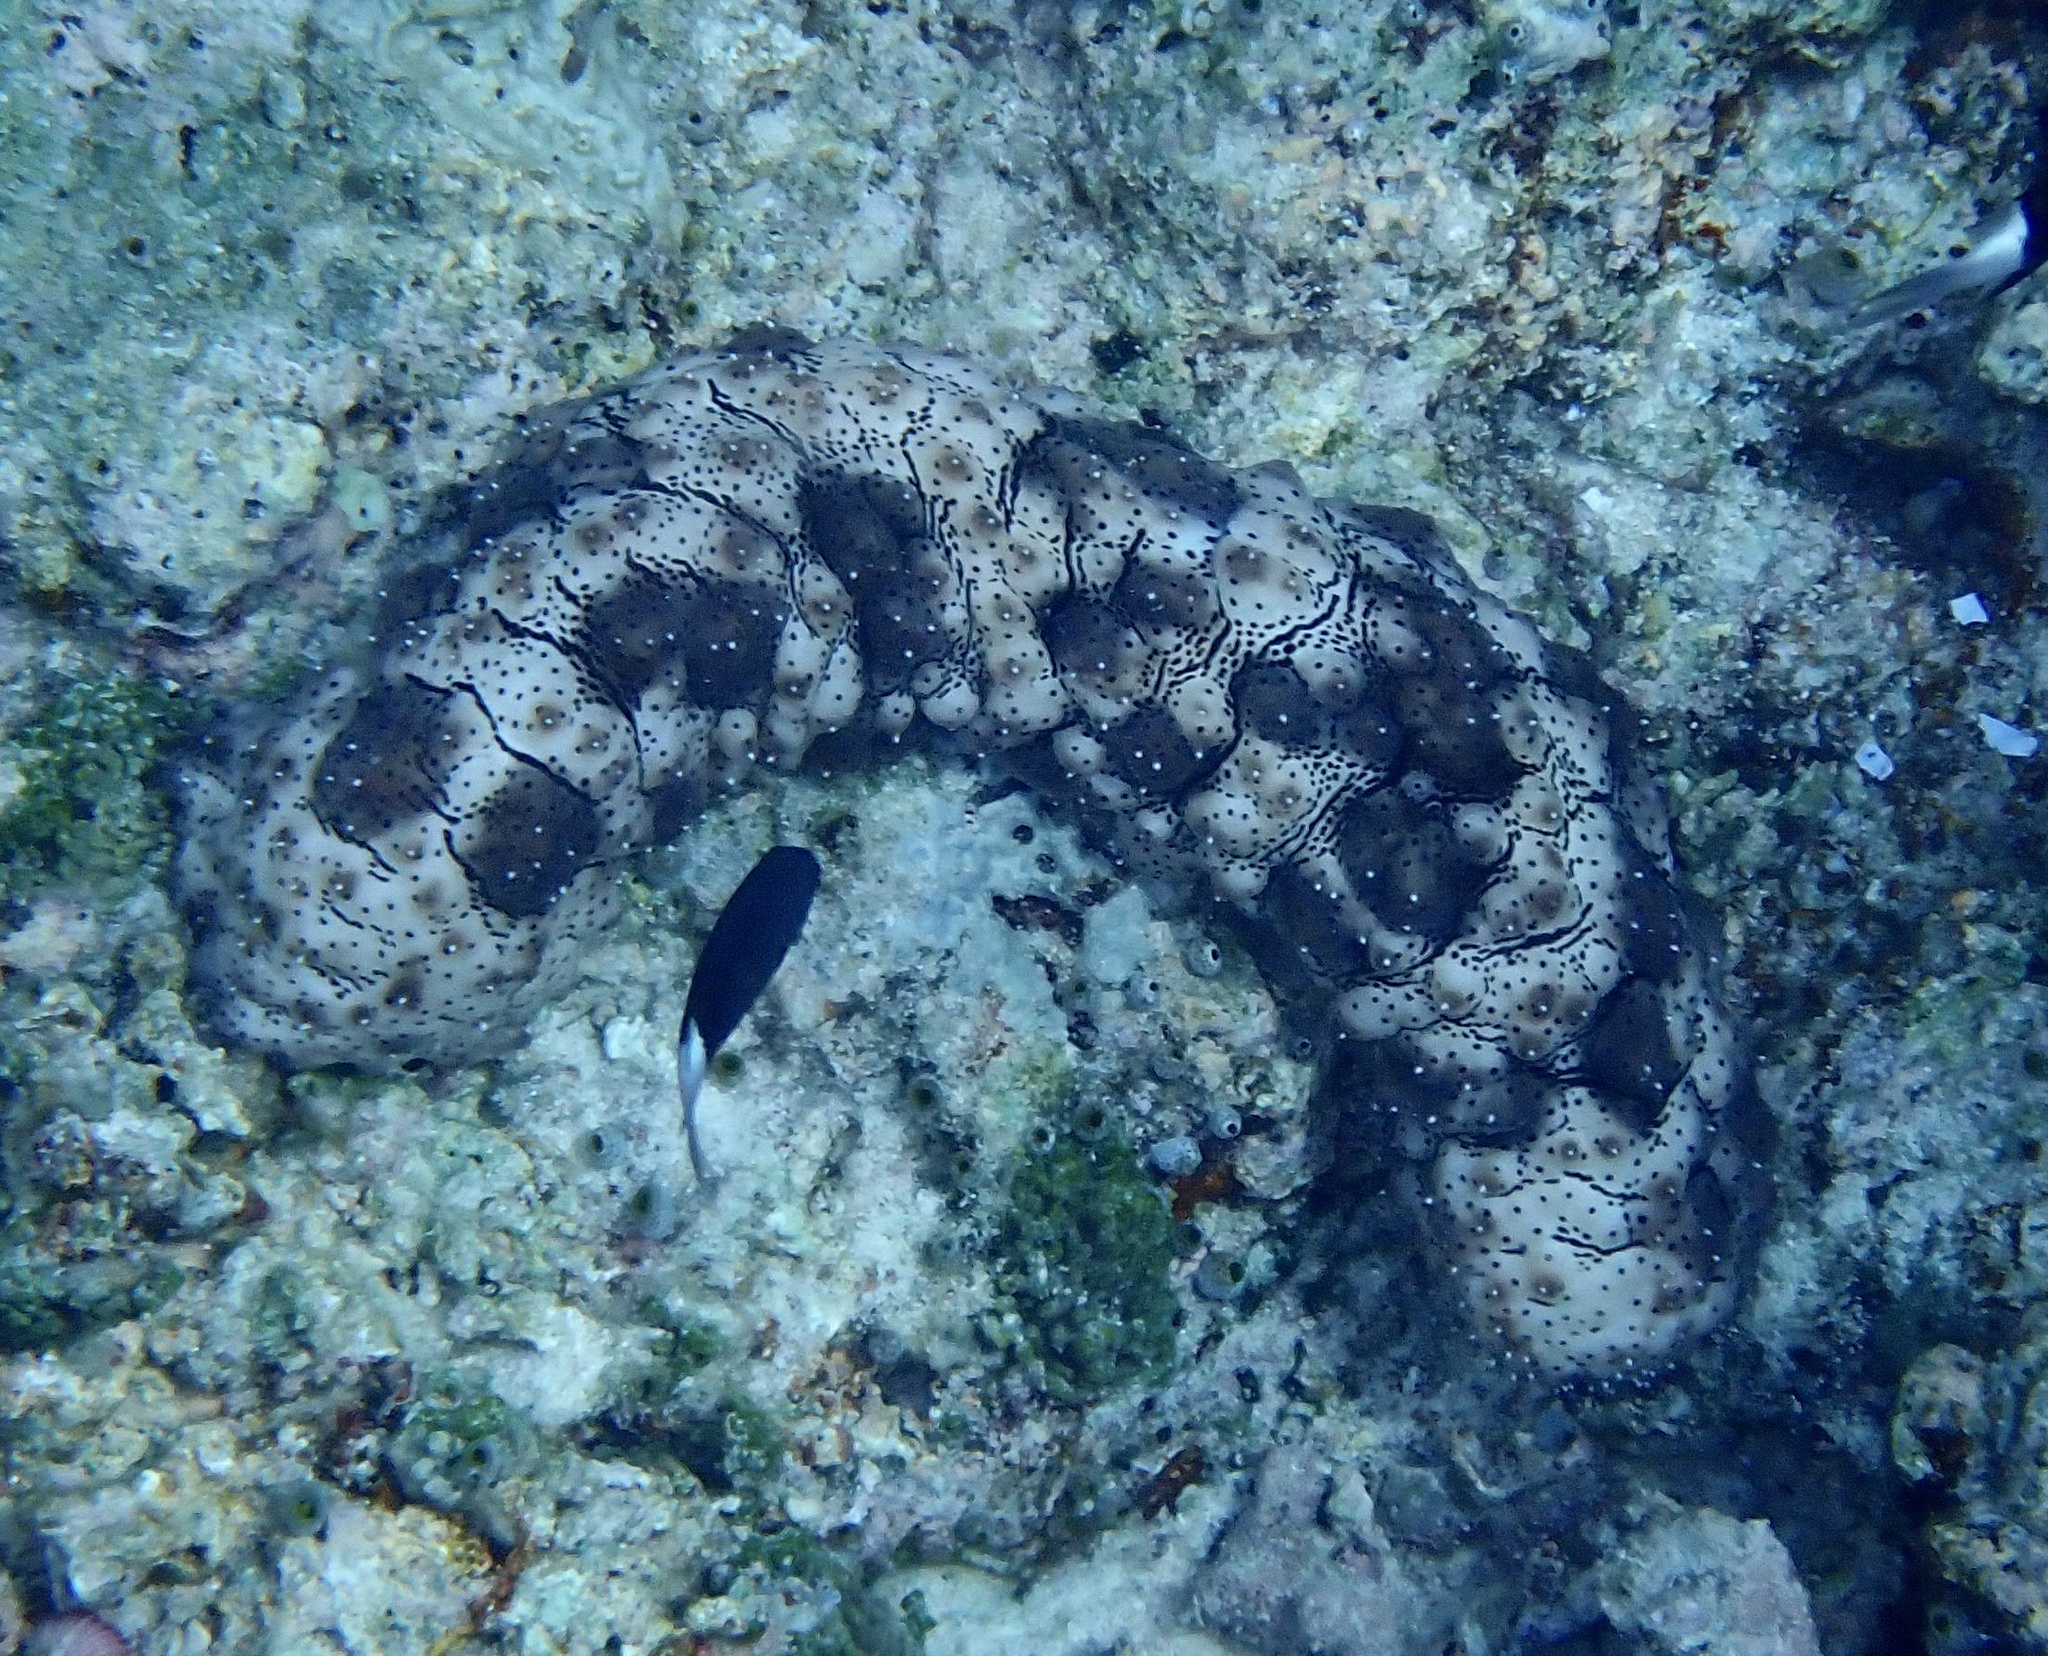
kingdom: Animalia
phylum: Echinodermata
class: Holothuroidea
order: Holothuriida
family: Holothuriidae
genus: Pearsonothuria
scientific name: Pearsonothuria graeffei
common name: Blackspotted sea cucumber
